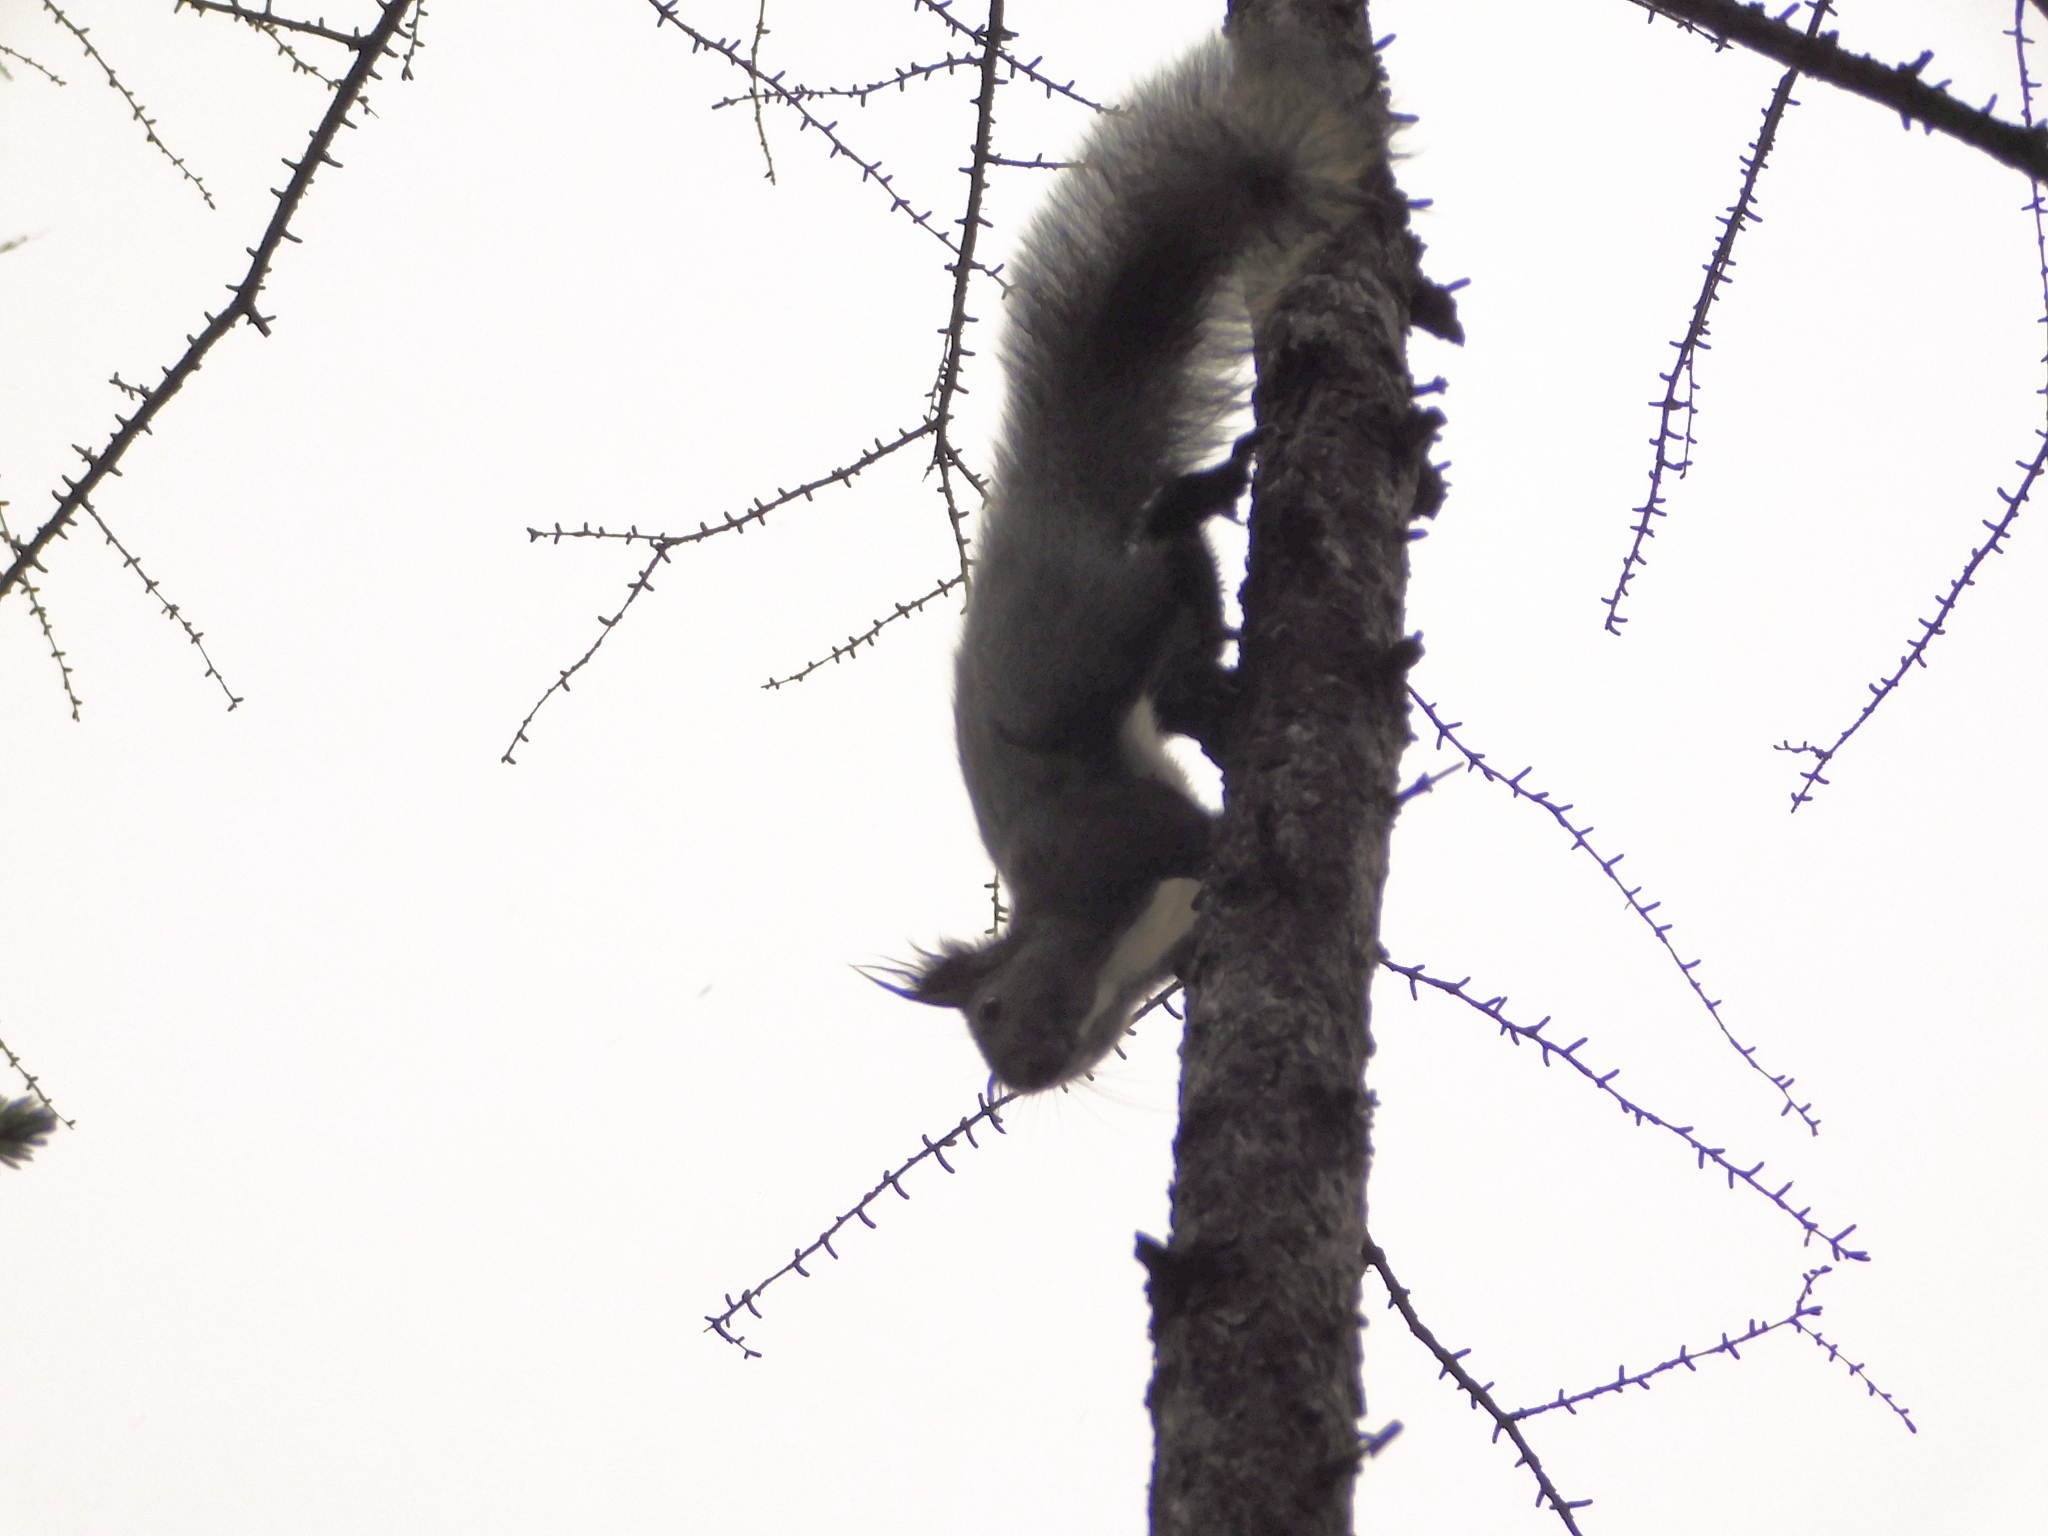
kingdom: Animalia
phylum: Chordata
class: Mammalia
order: Rodentia
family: Sciuridae
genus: Sciurus
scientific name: Sciurus vulgaris
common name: Eurasian red squirrel
